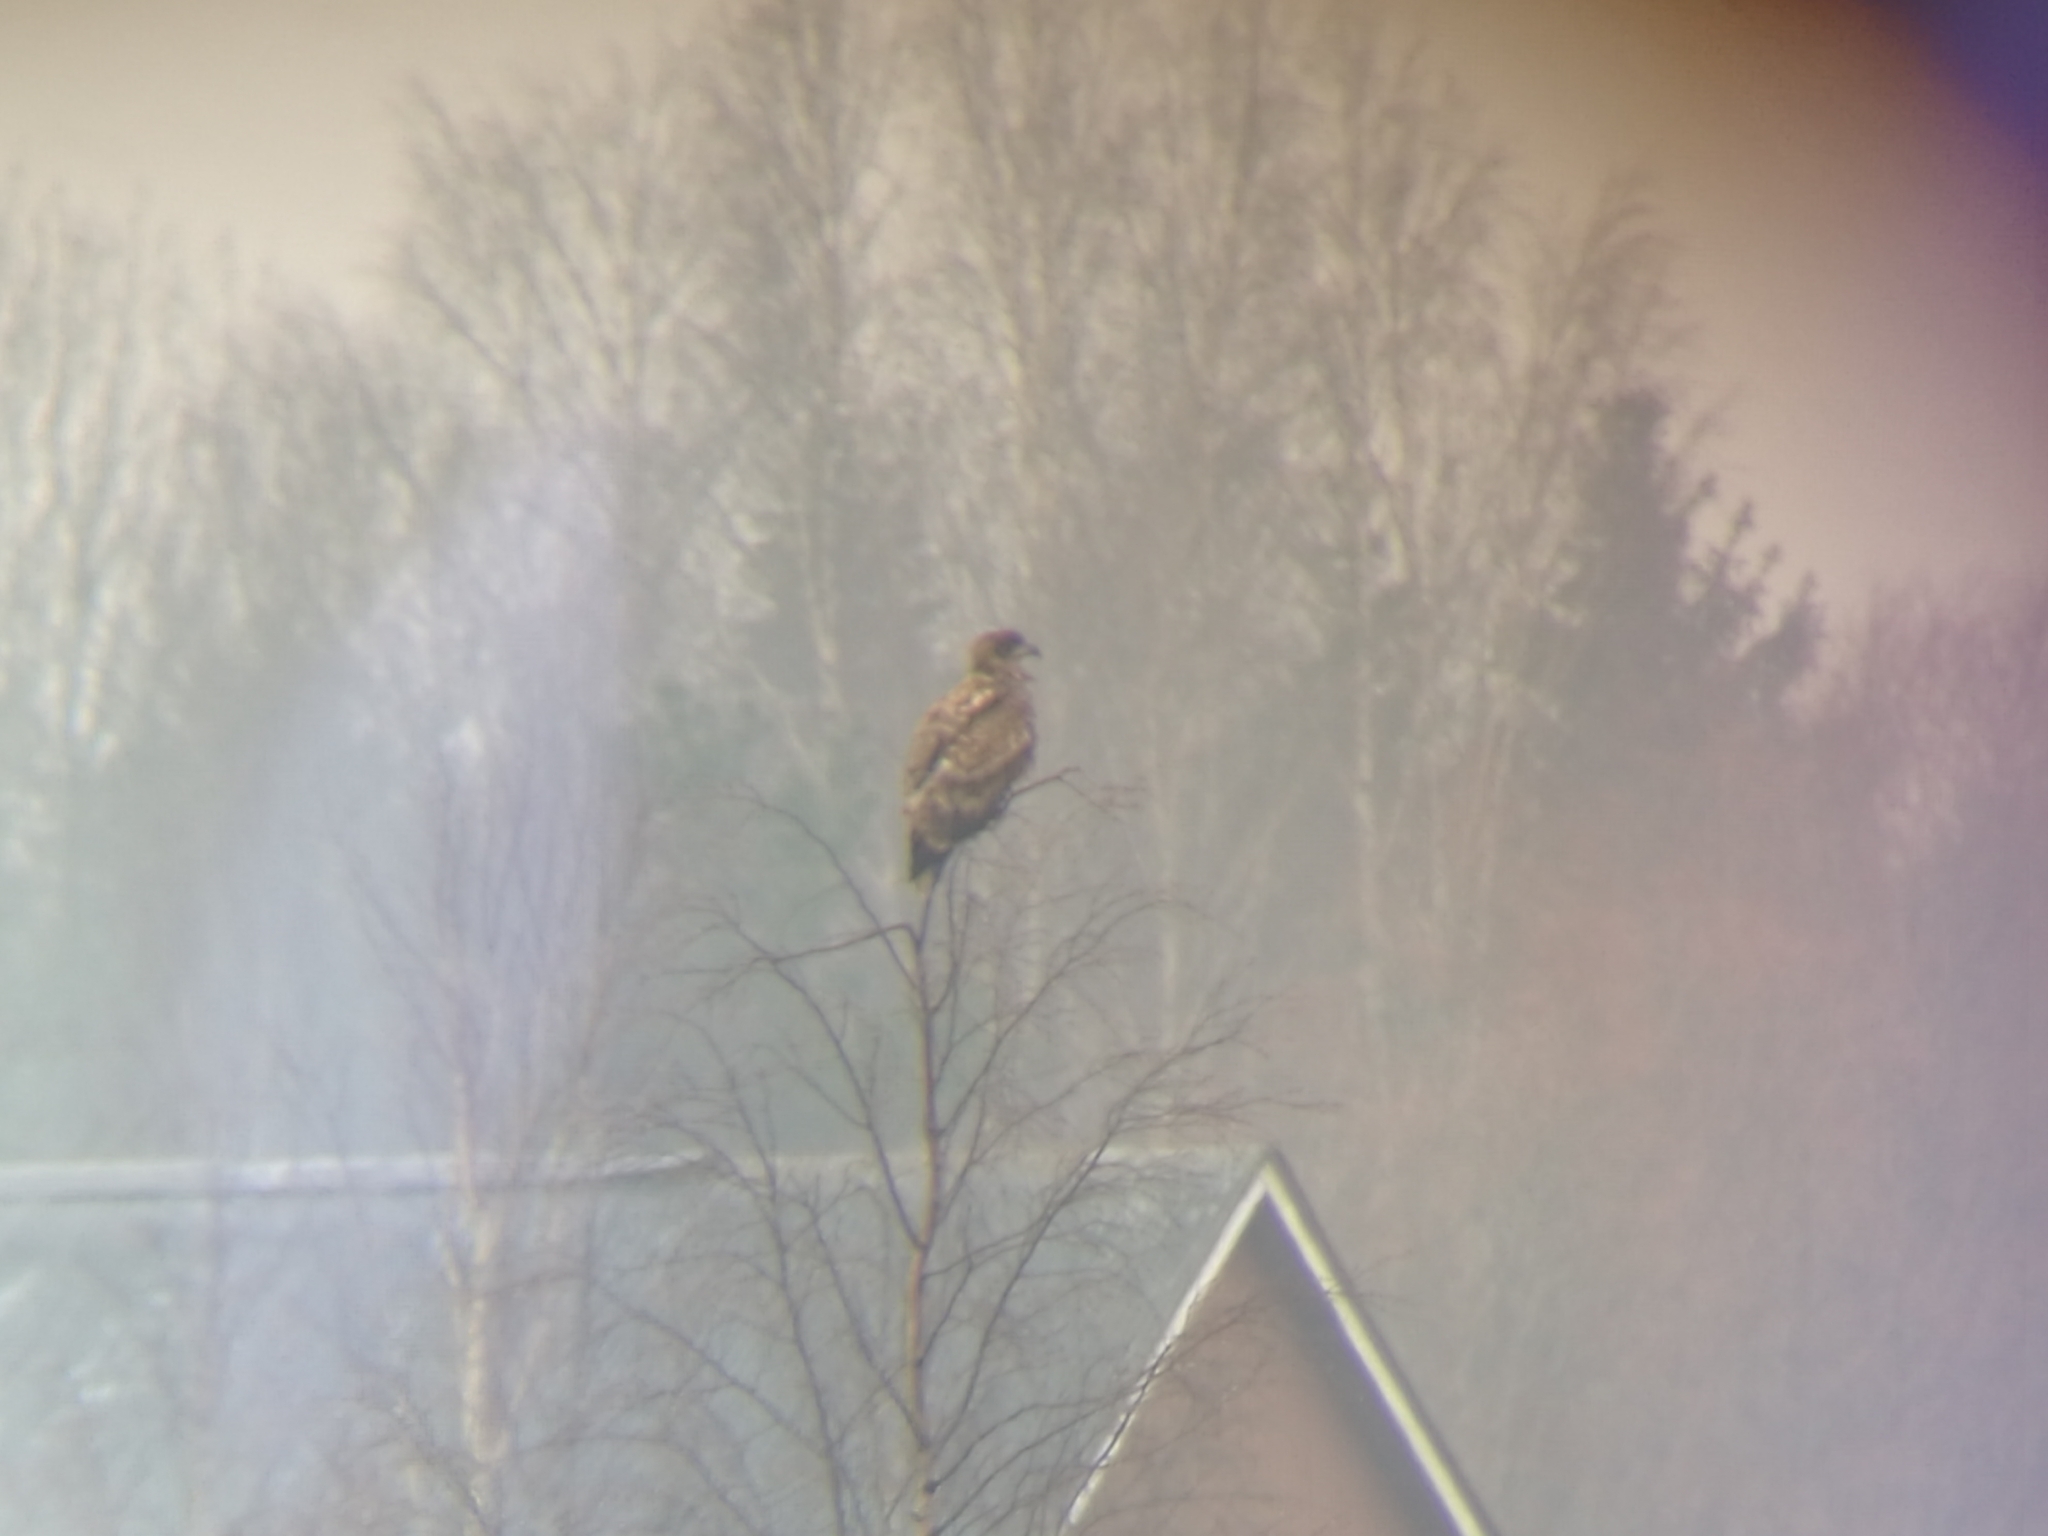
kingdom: Animalia
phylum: Chordata
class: Aves
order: Accipitriformes
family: Accipitridae
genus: Haliaeetus
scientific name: Haliaeetus albicilla
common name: White-tailed eagle
